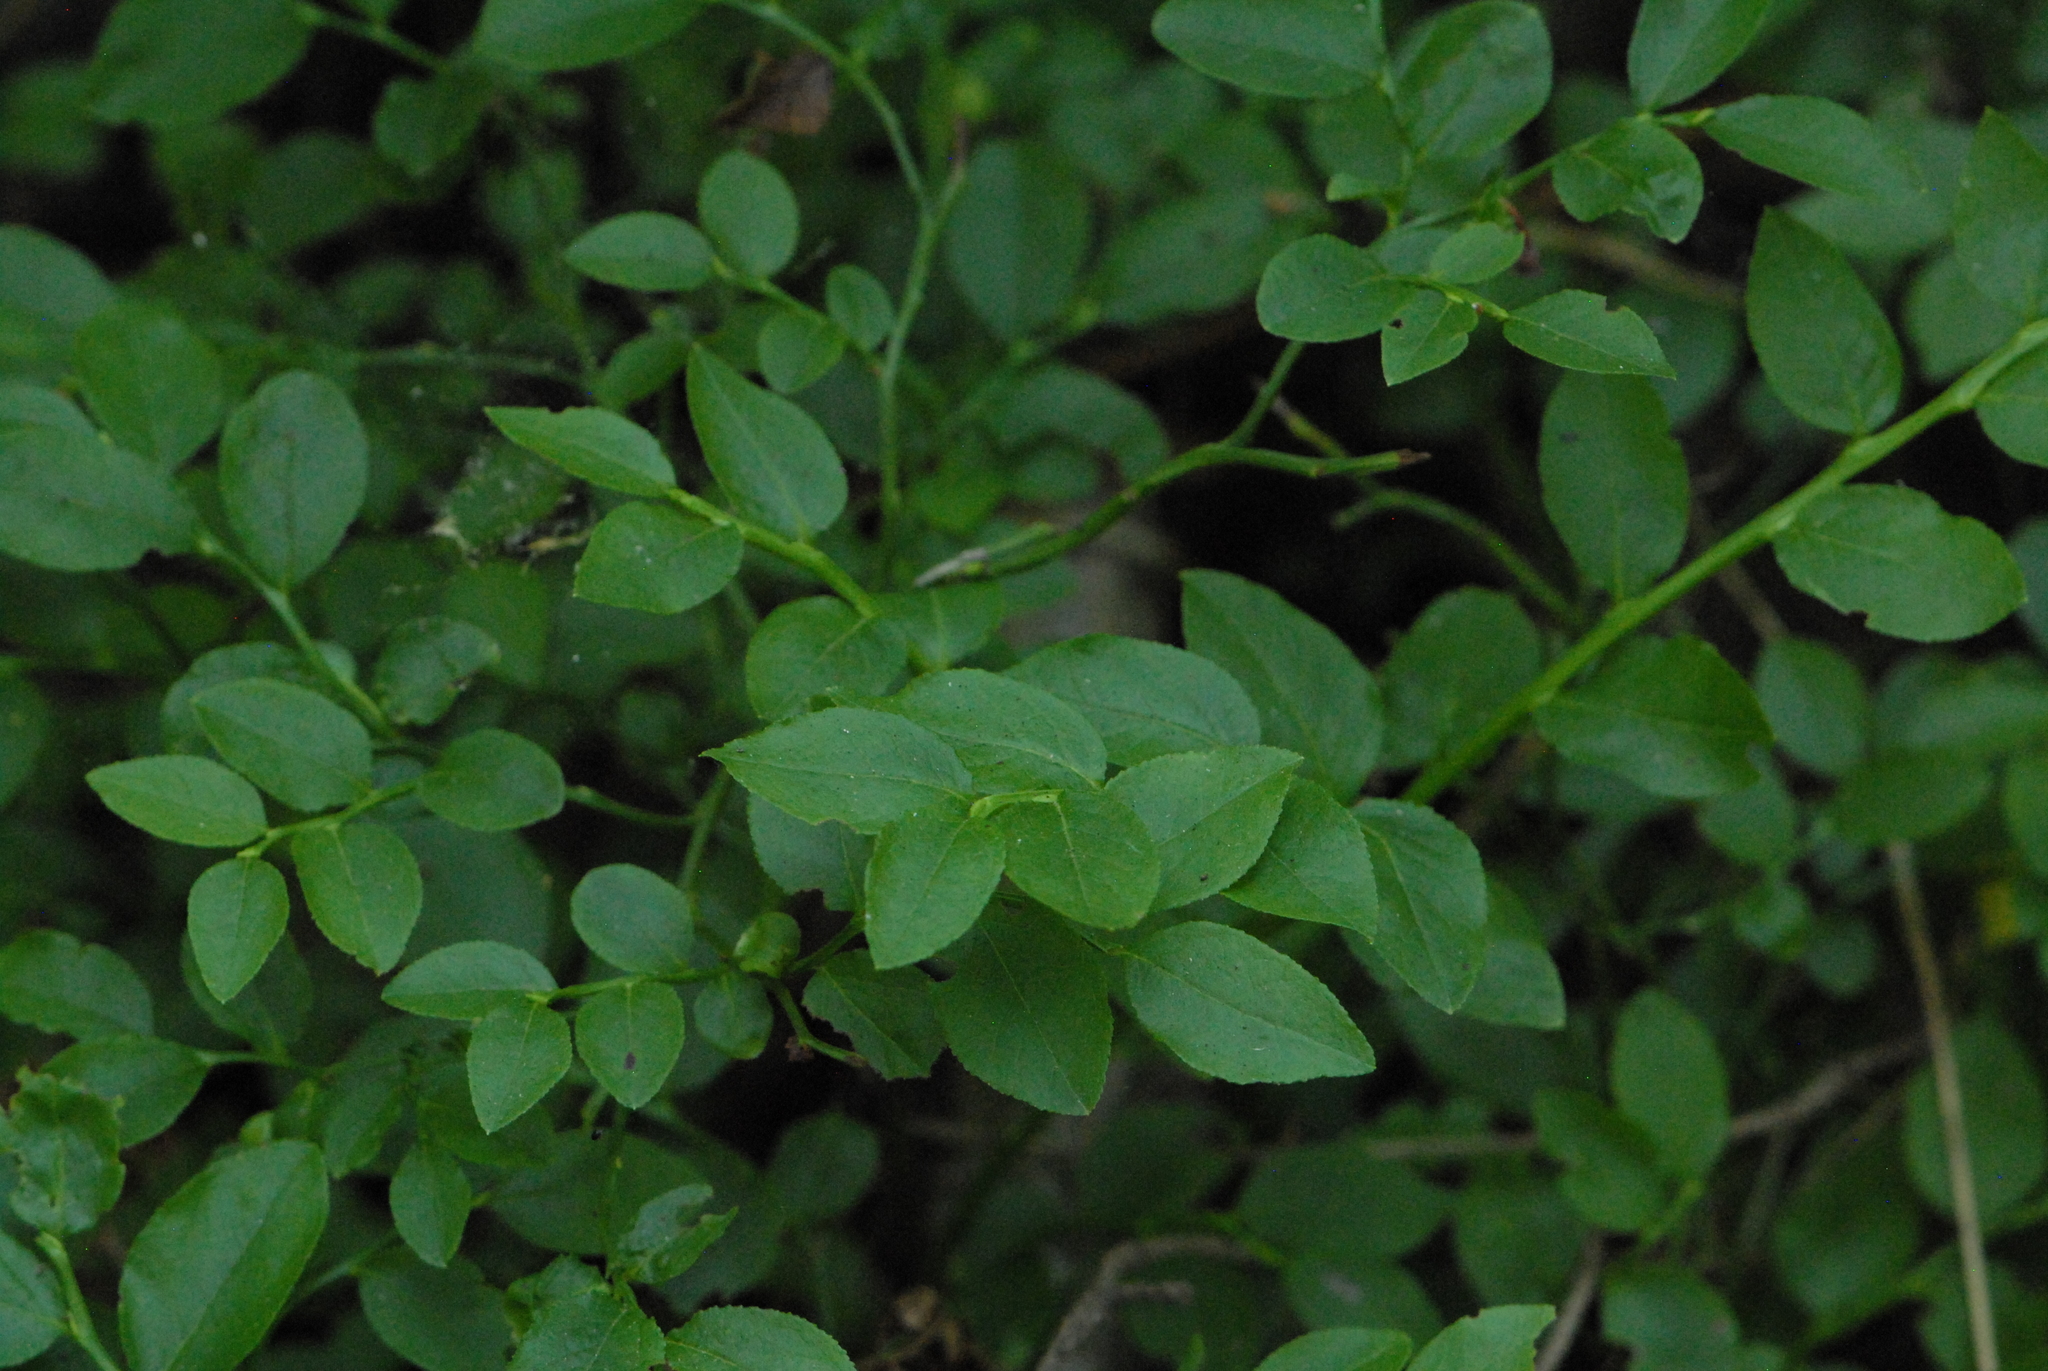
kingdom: Plantae
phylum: Tracheophyta
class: Magnoliopsida
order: Ericales
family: Ericaceae
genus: Vaccinium
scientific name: Vaccinium myrtillus
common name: Bilberry
